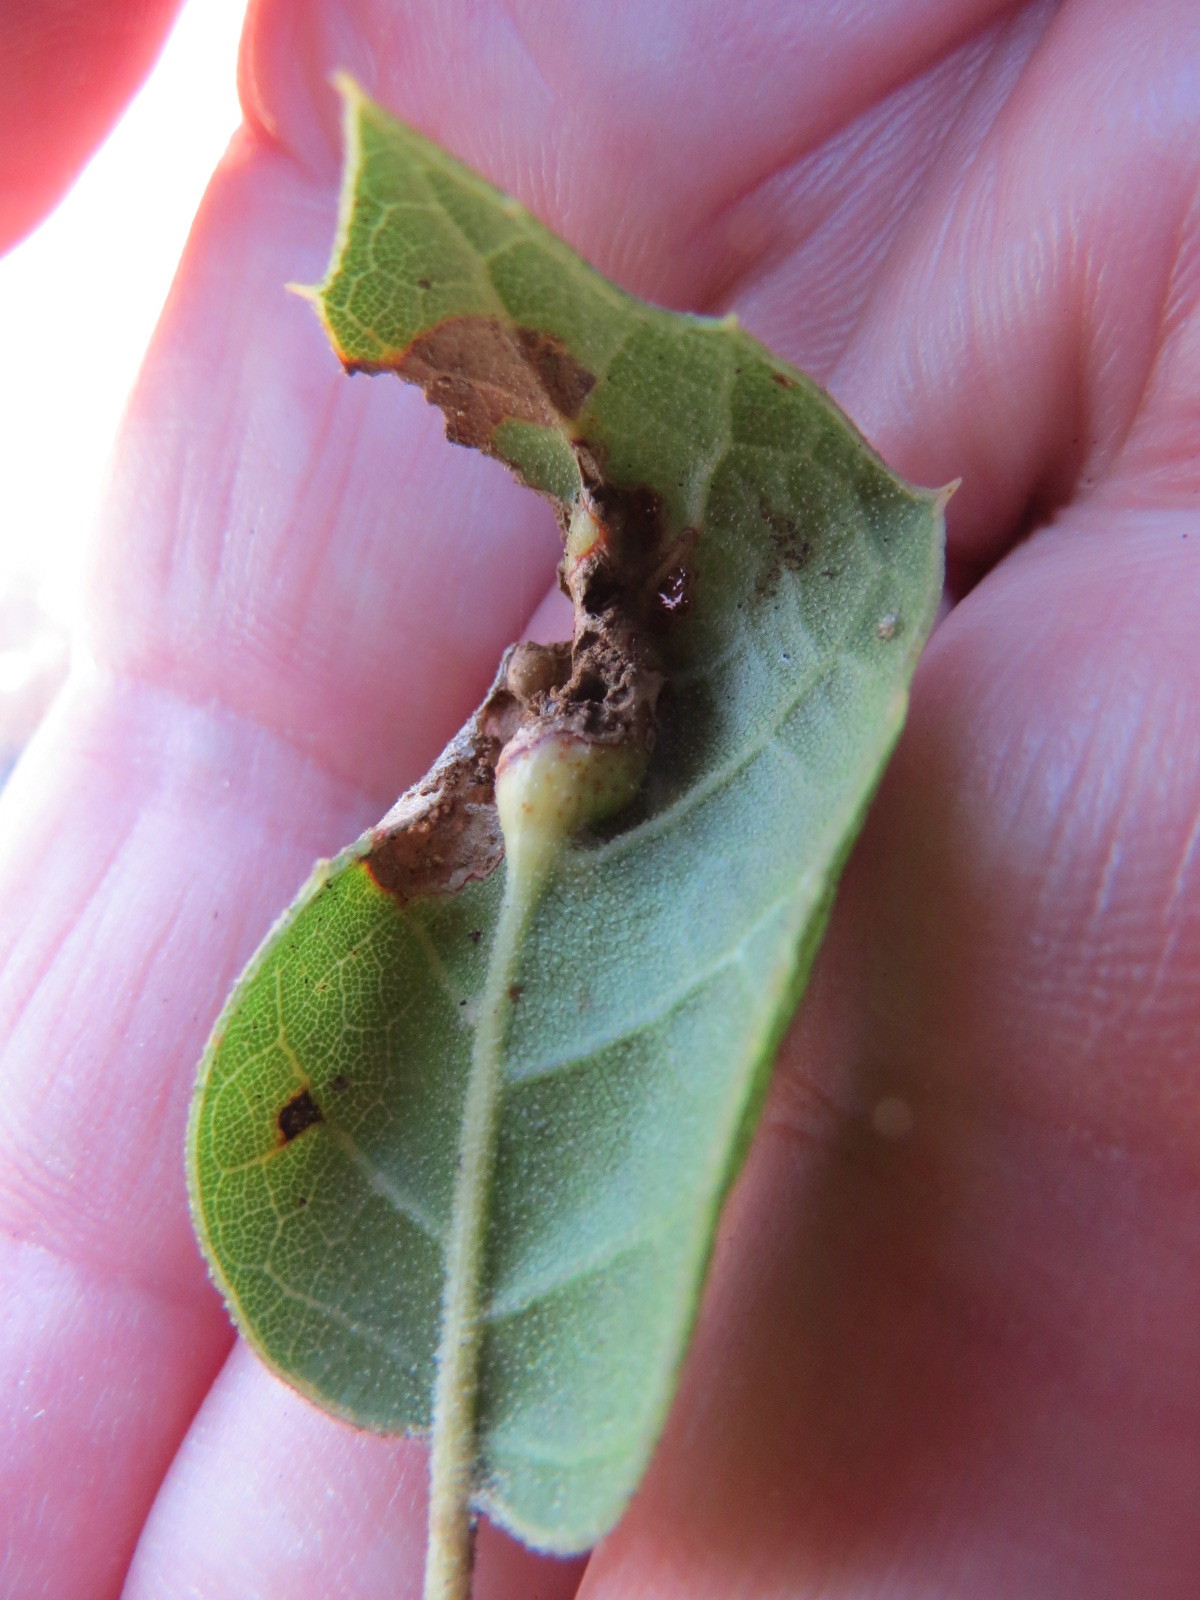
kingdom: Animalia
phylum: Arthropoda
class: Insecta
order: Hymenoptera
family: Cynipidae
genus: Melikaiella
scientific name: Melikaiella
